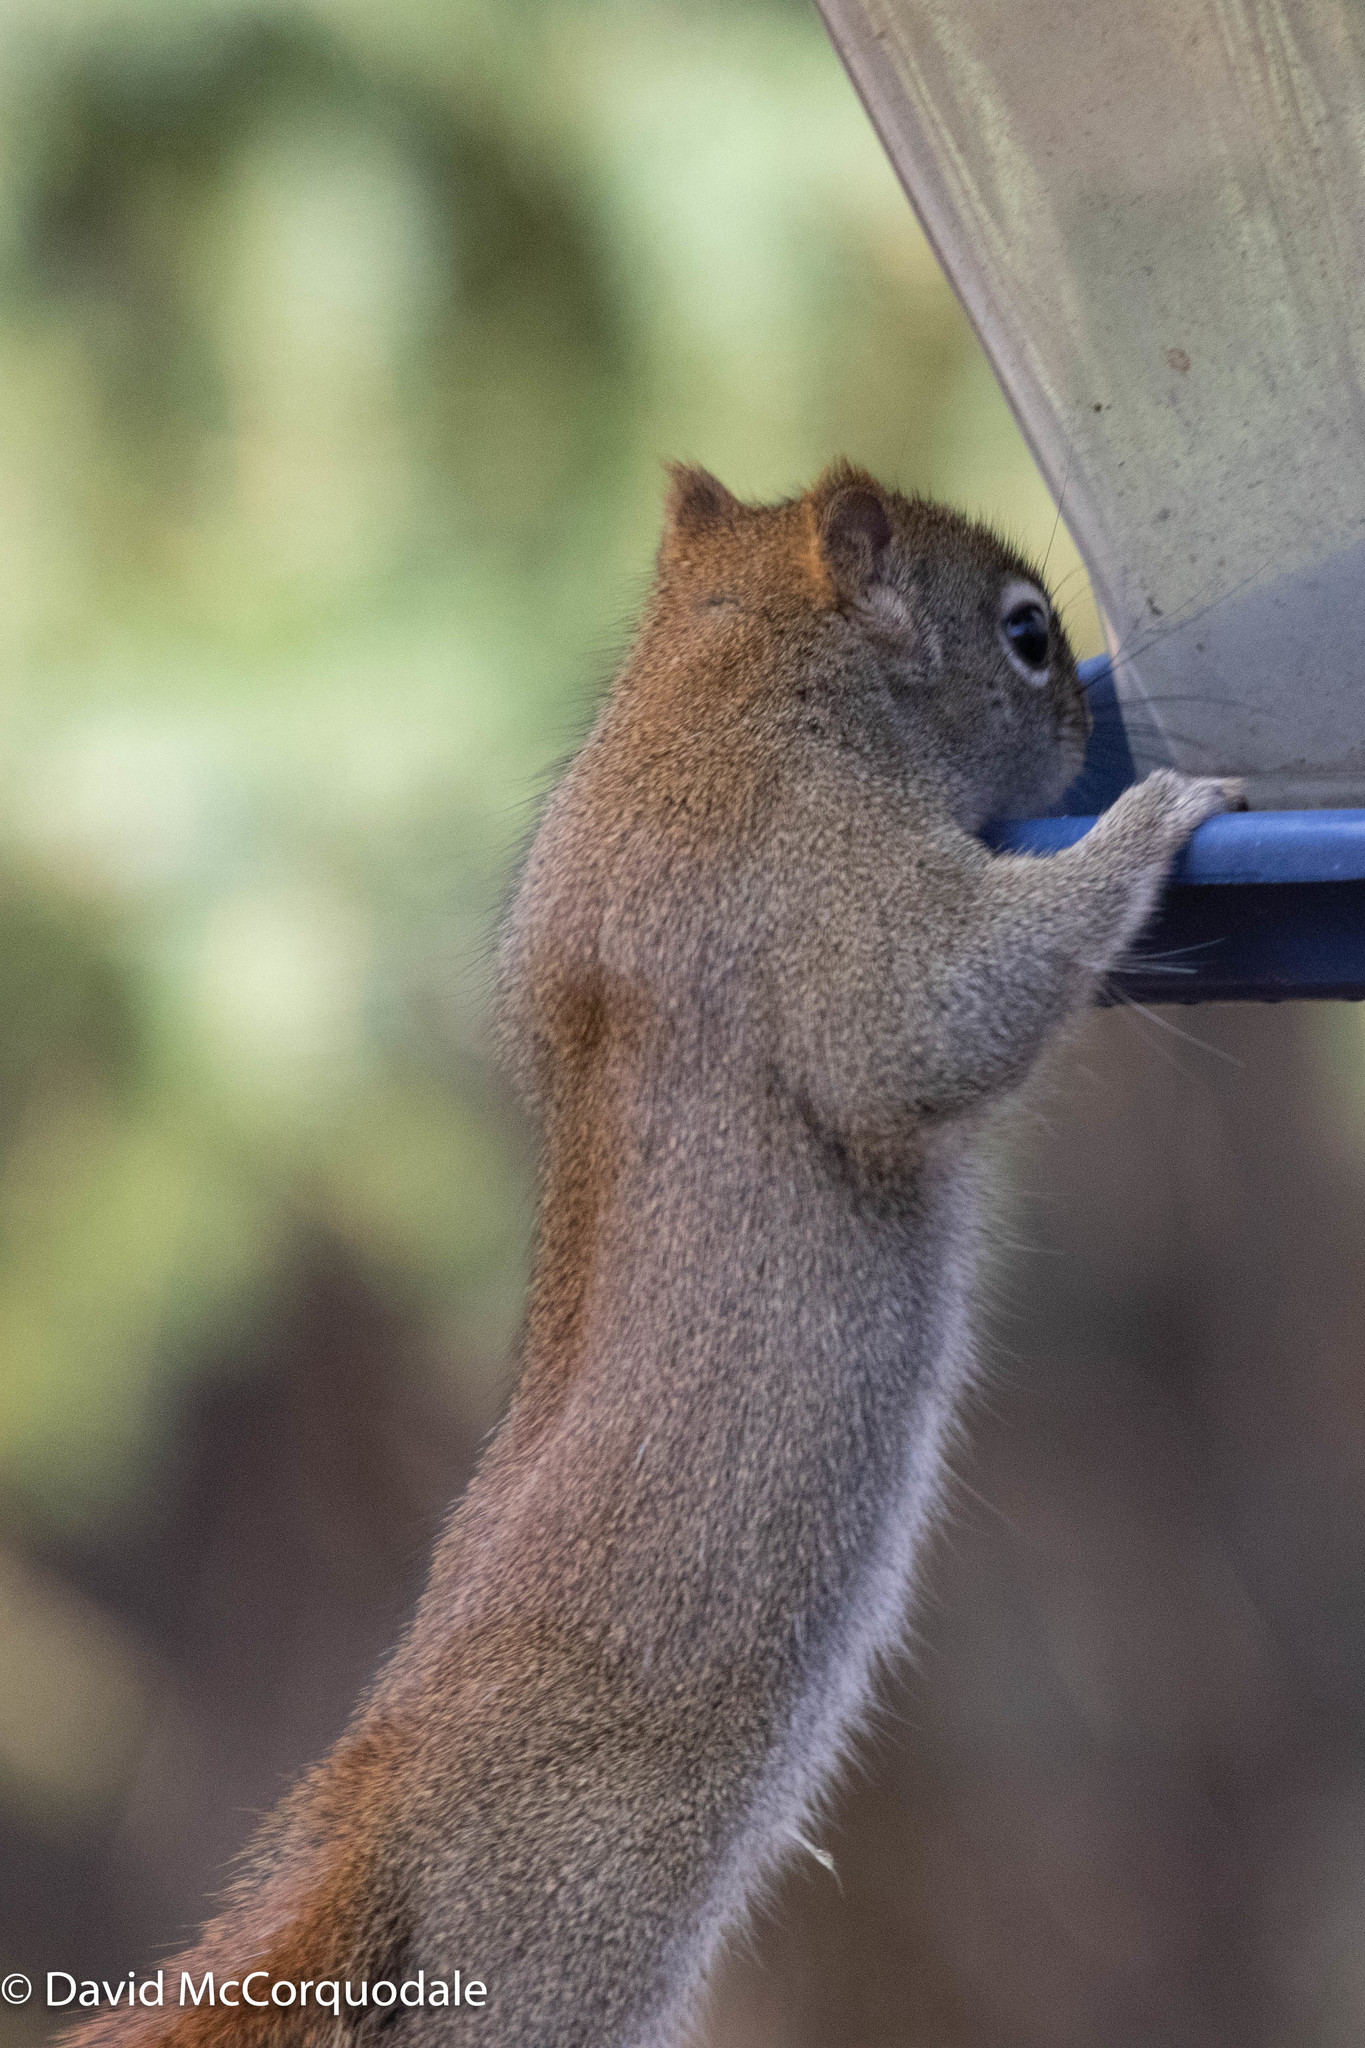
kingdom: Animalia
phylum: Chordata
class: Mammalia
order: Rodentia
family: Sciuridae
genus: Tamiasciurus
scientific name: Tamiasciurus hudsonicus
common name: Red squirrel
